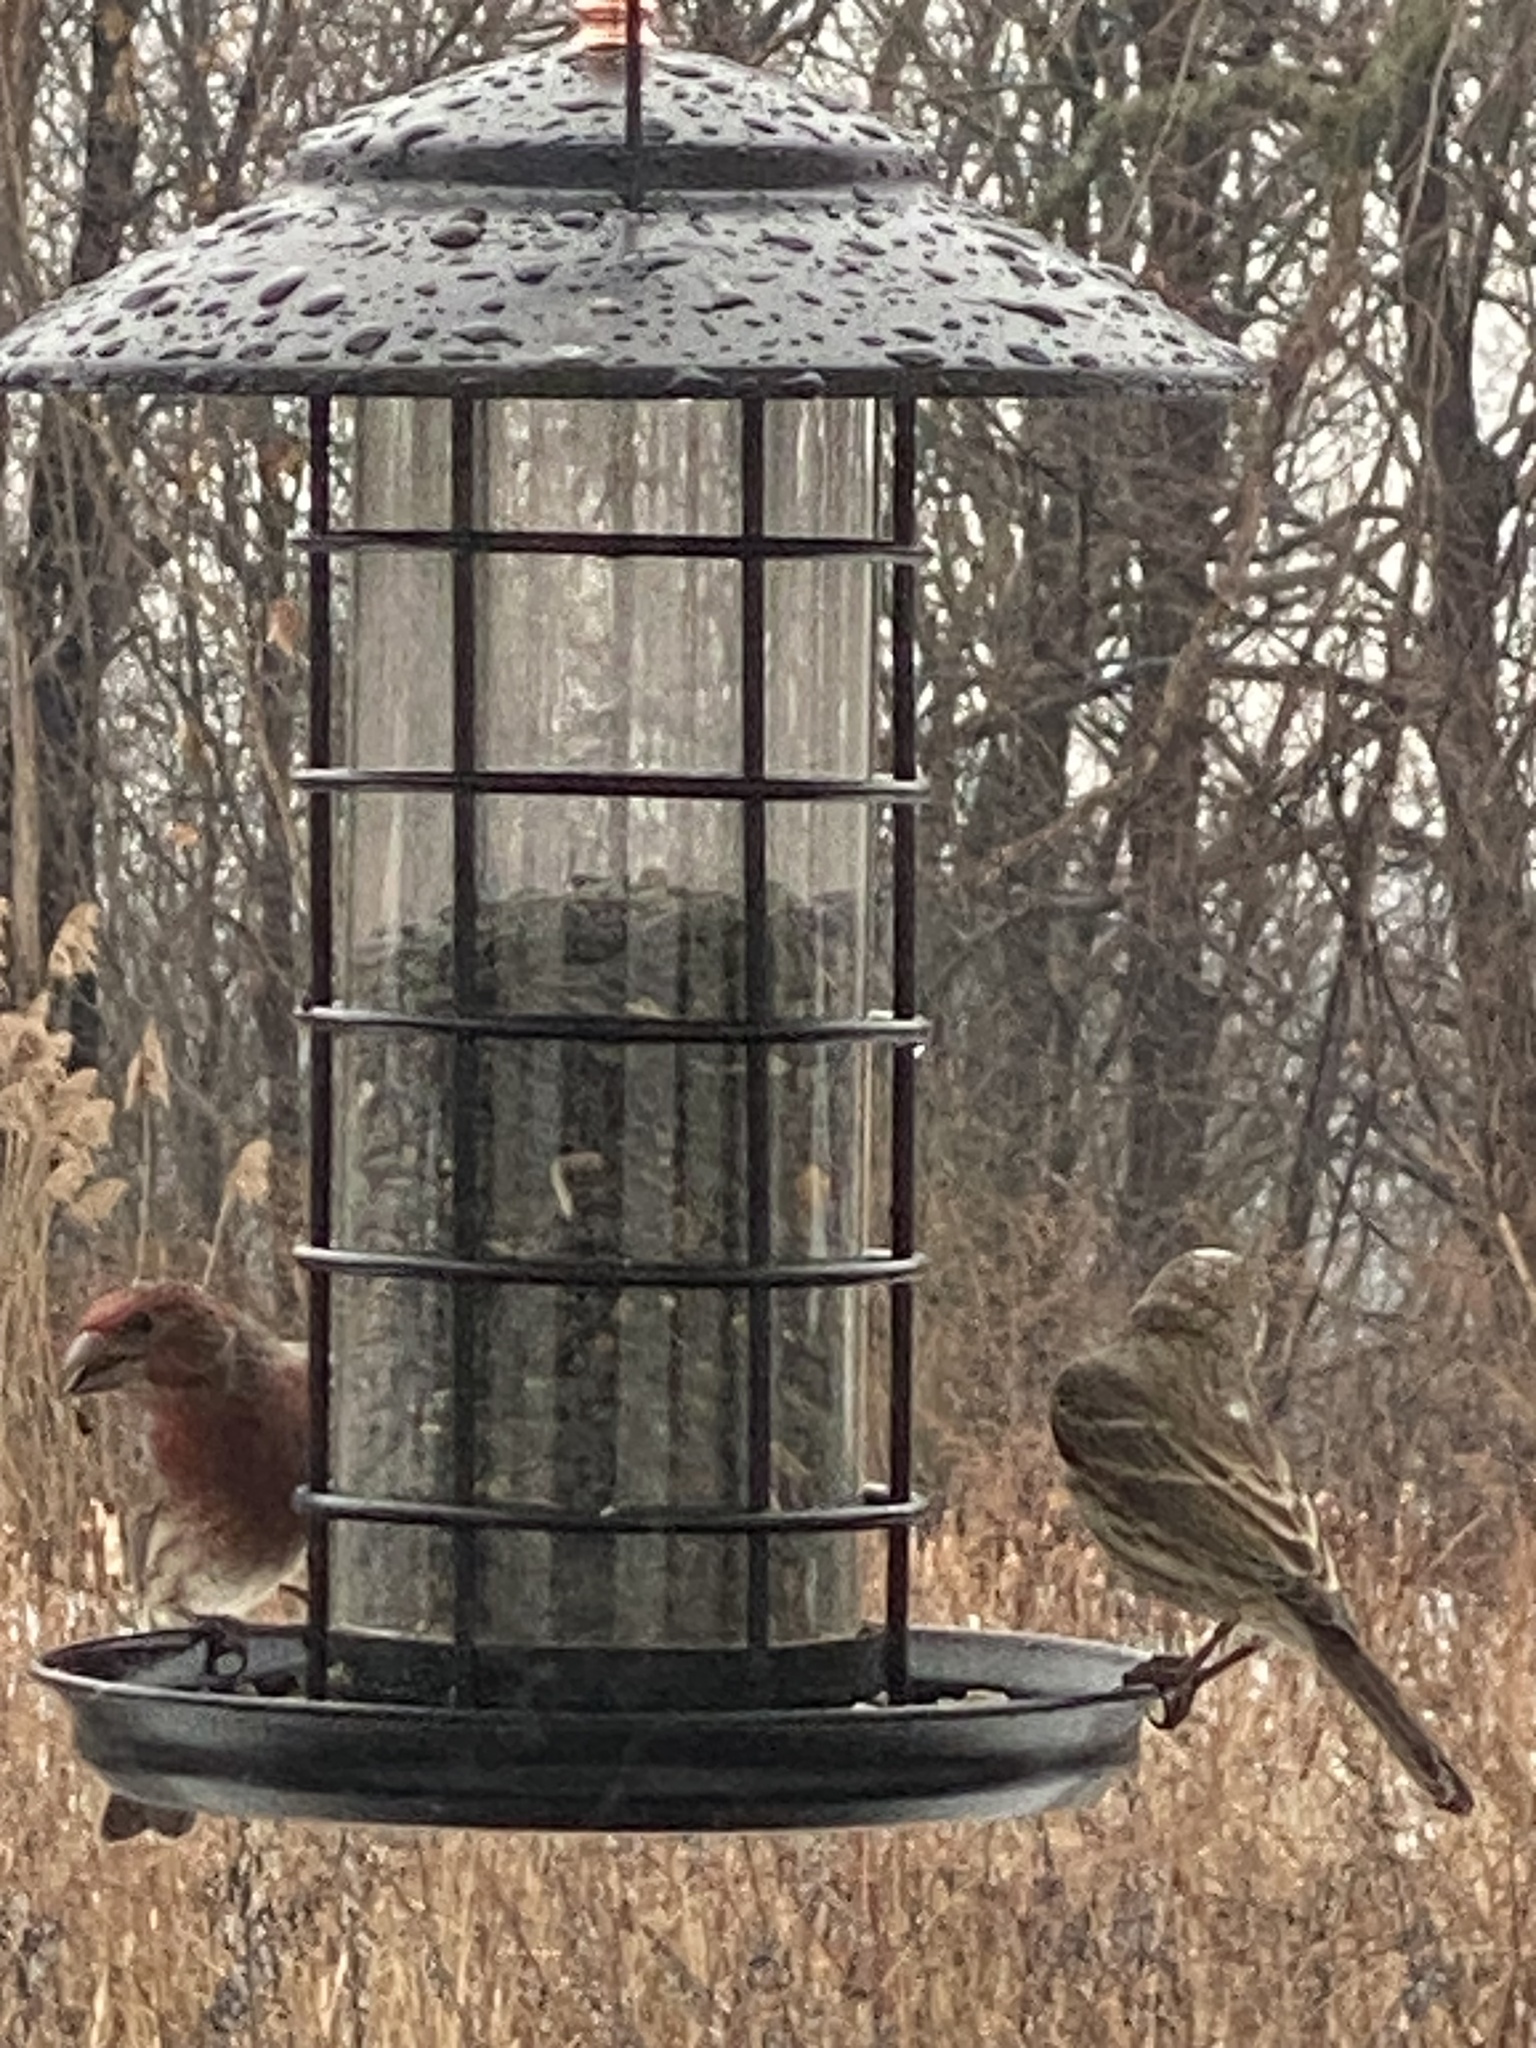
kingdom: Animalia
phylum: Chordata
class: Aves
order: Passeriformes
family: Fringillidae
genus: Haemorhous
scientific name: Haemorhous mexicanus
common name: House finch
